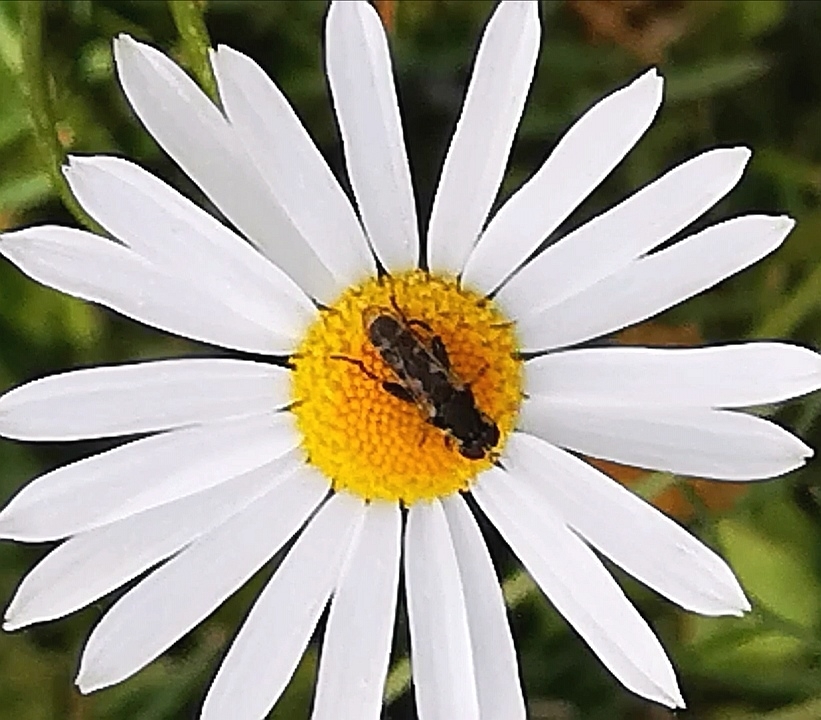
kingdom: Animalia
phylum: Arthropoda
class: Insecta
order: Diptera
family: Syrphidae
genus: Syritta
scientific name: Syritta pipiens
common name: Hover fly
